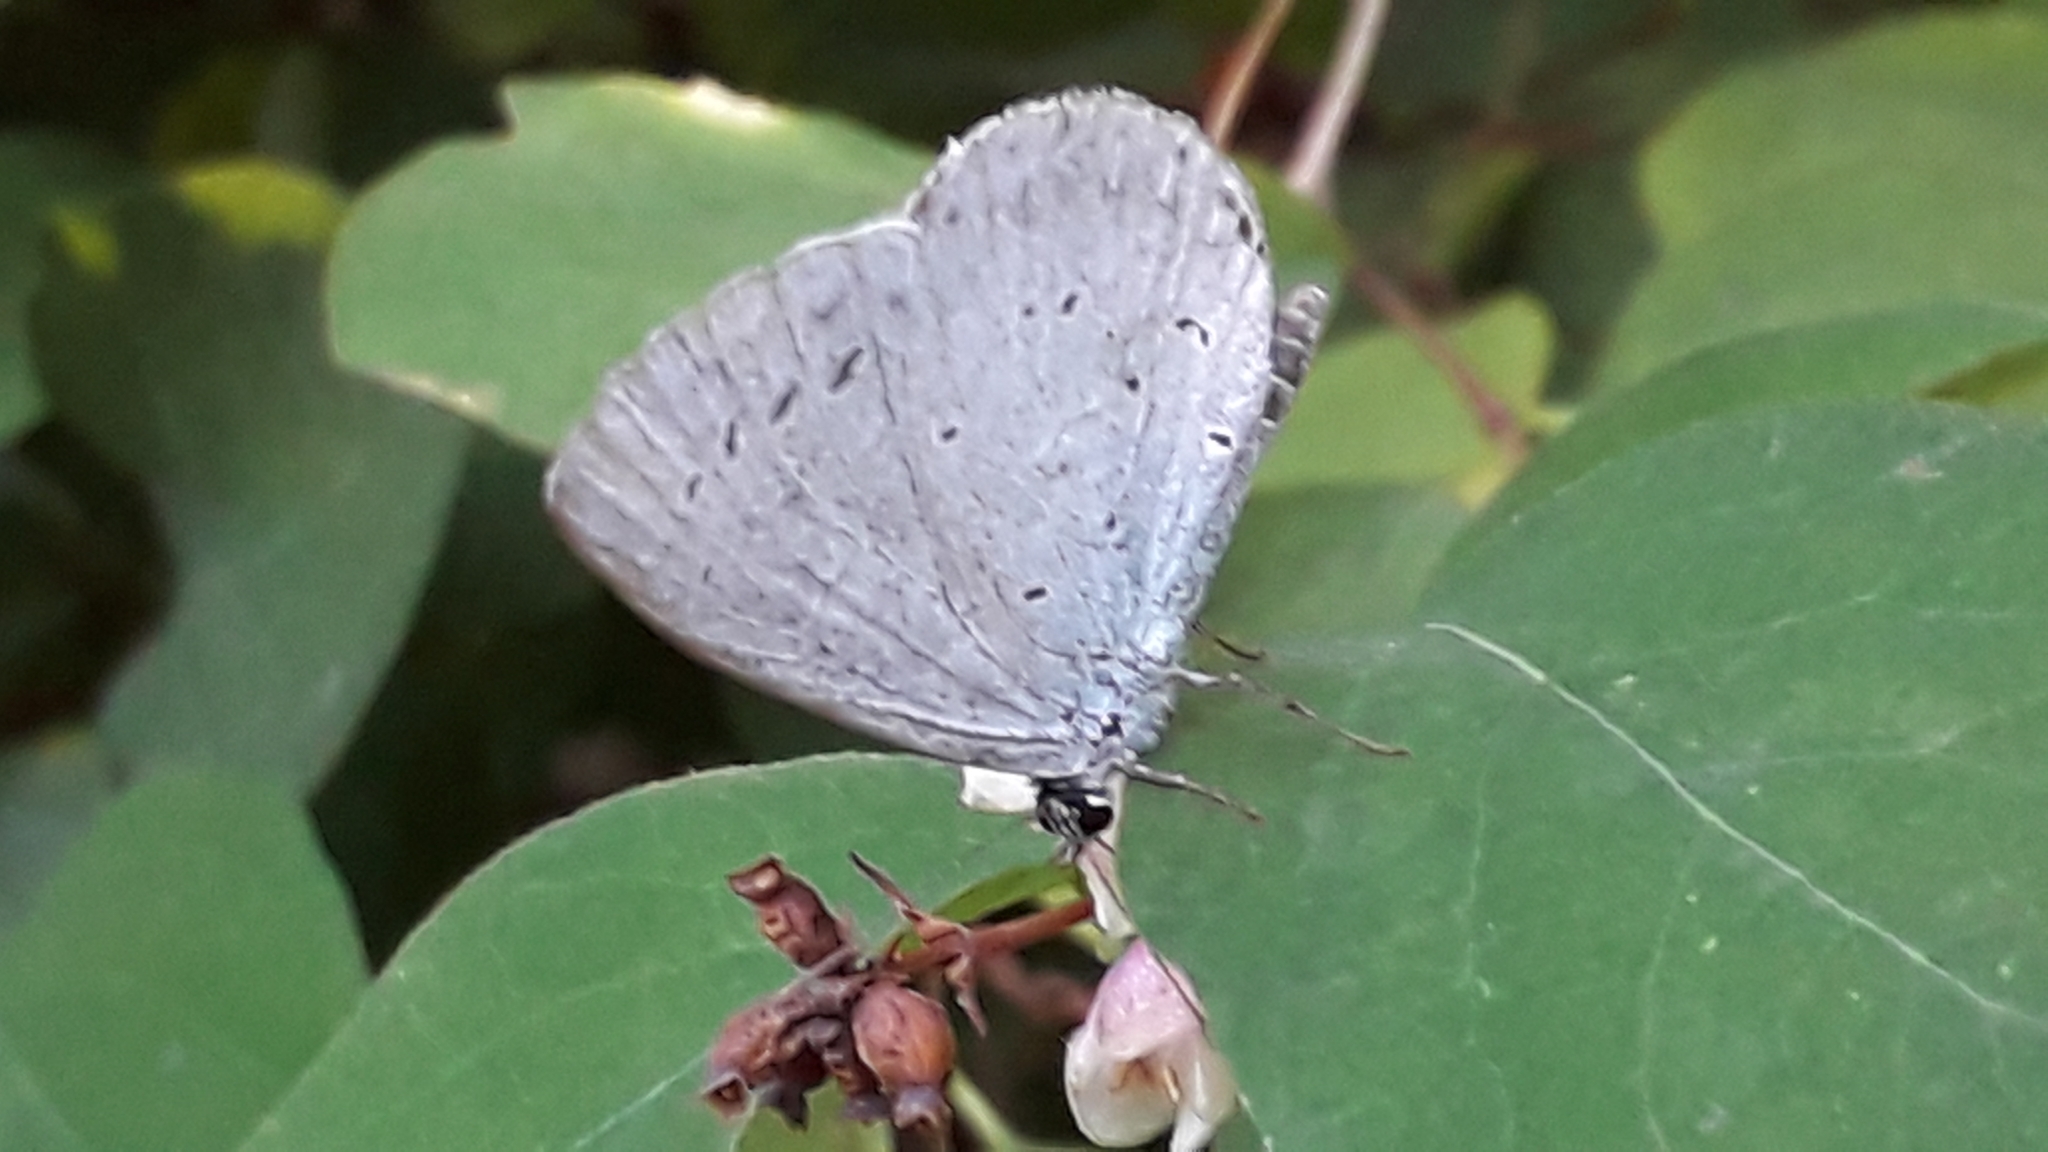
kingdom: Animalia
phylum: Arthropoda
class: Insecta
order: Lepidoptera
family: Lycaenidae
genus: Celastrina
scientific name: Celastrina argiolus
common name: Holly blue
